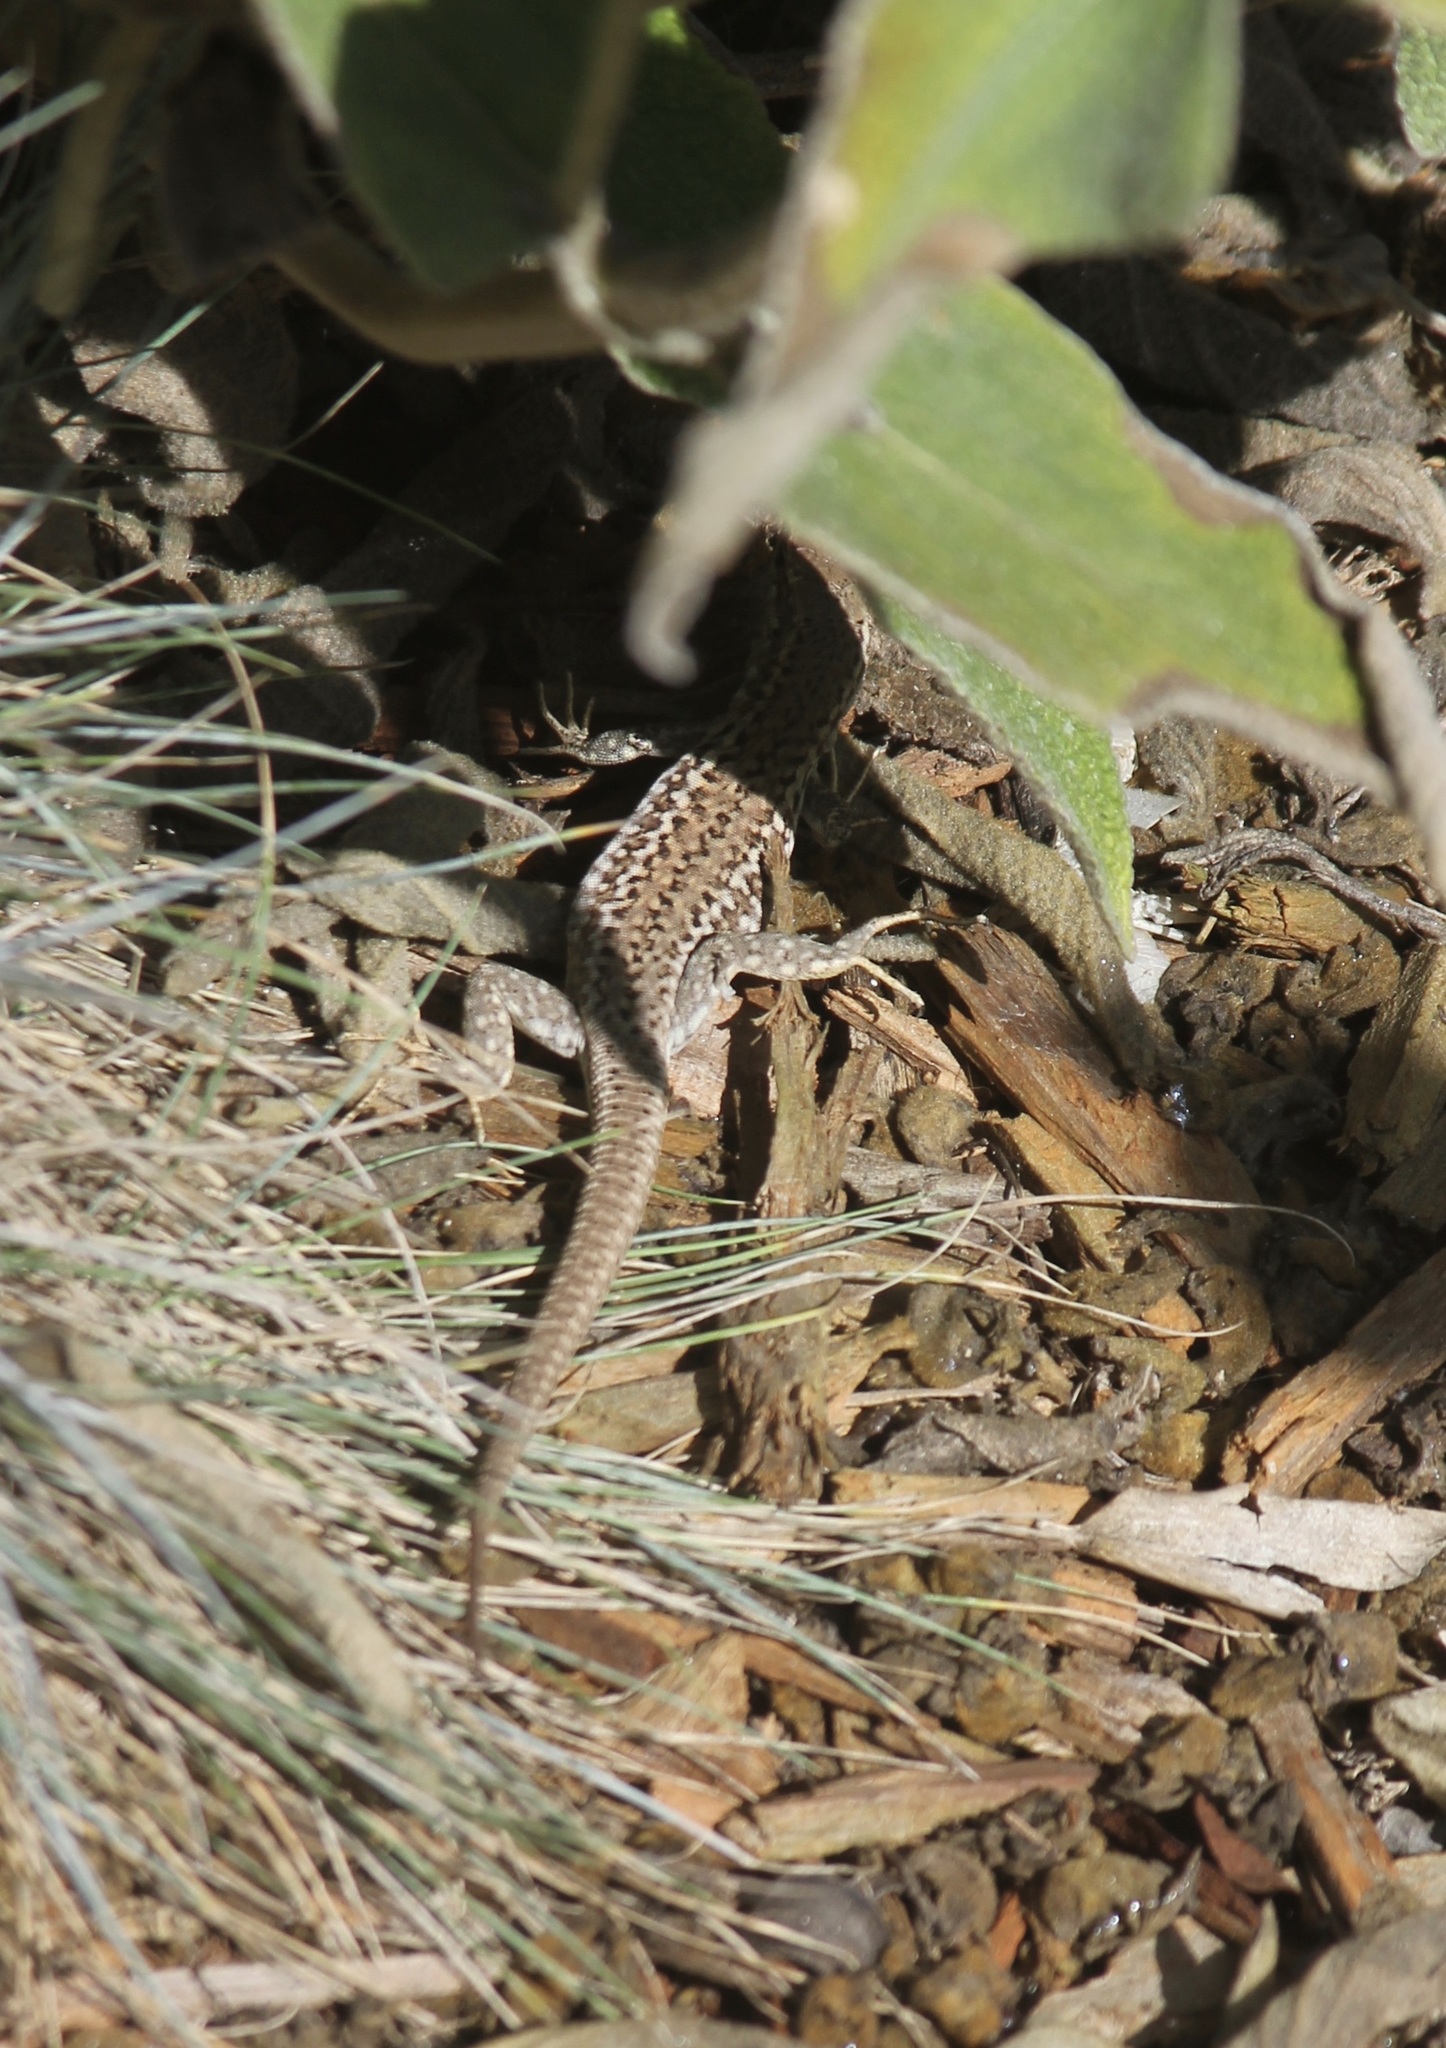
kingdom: Animalia
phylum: Chordata
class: Squamata
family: Lacertidae
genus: Podarcis
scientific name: Podarcis siculus
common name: Italian wall lizard
